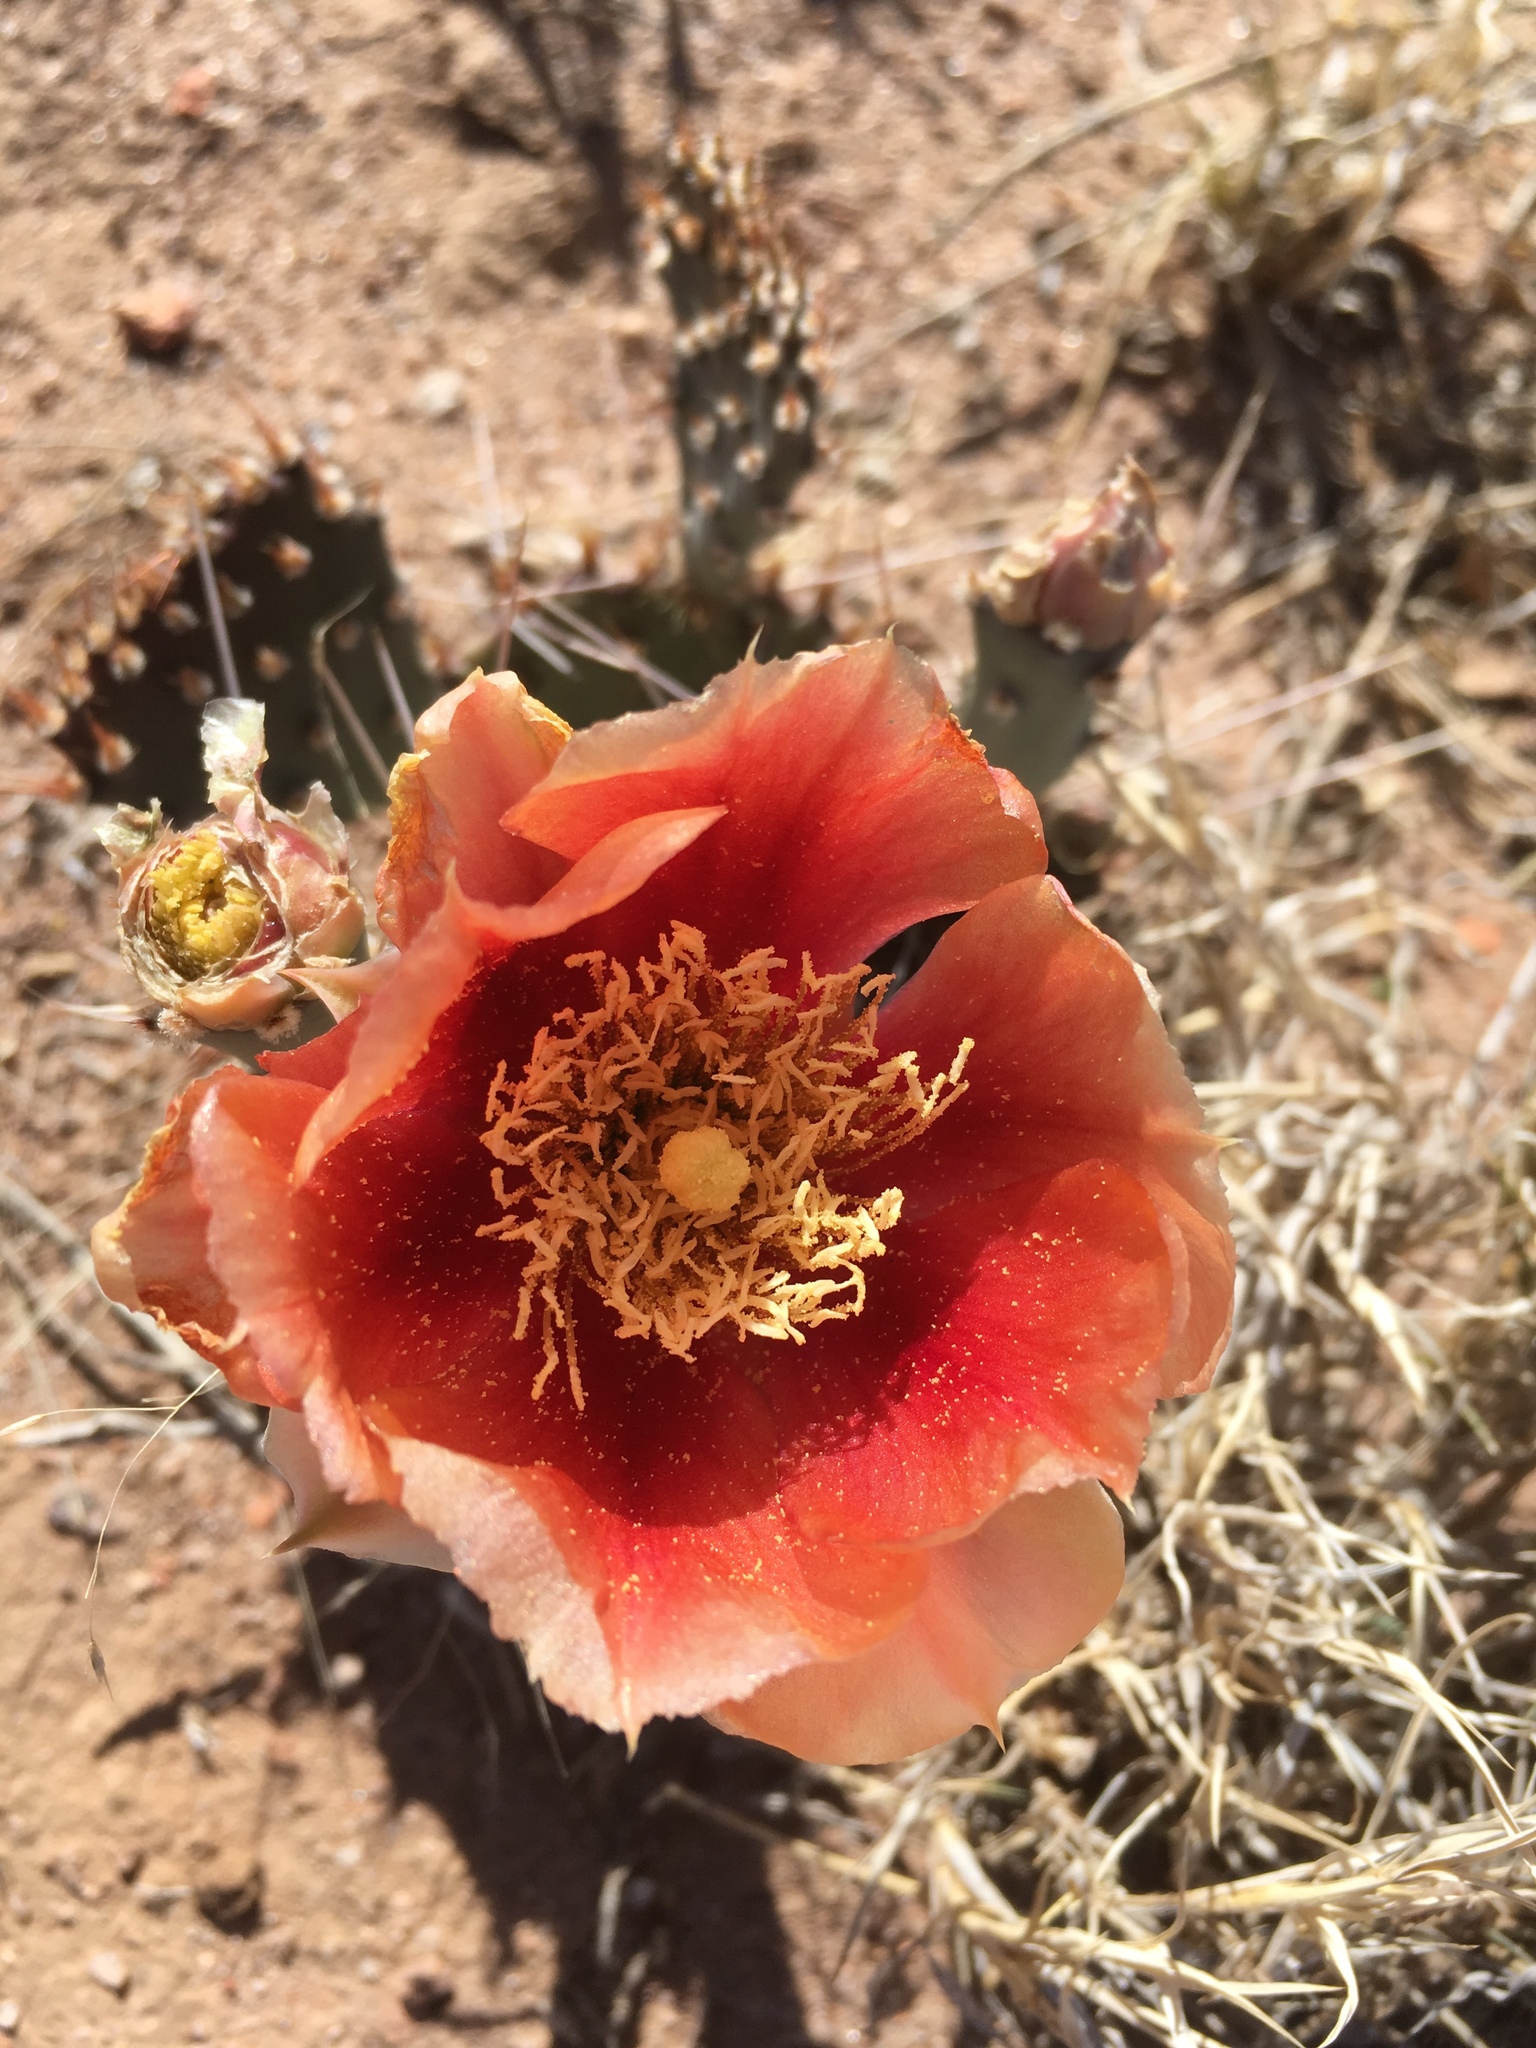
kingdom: Plantae
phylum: Tracheophyta
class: Magnoliopsida
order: Caryophyllales
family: Cactaceae
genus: Opuntia
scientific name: Opuntia pottsii
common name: Potts's prickly-pear
